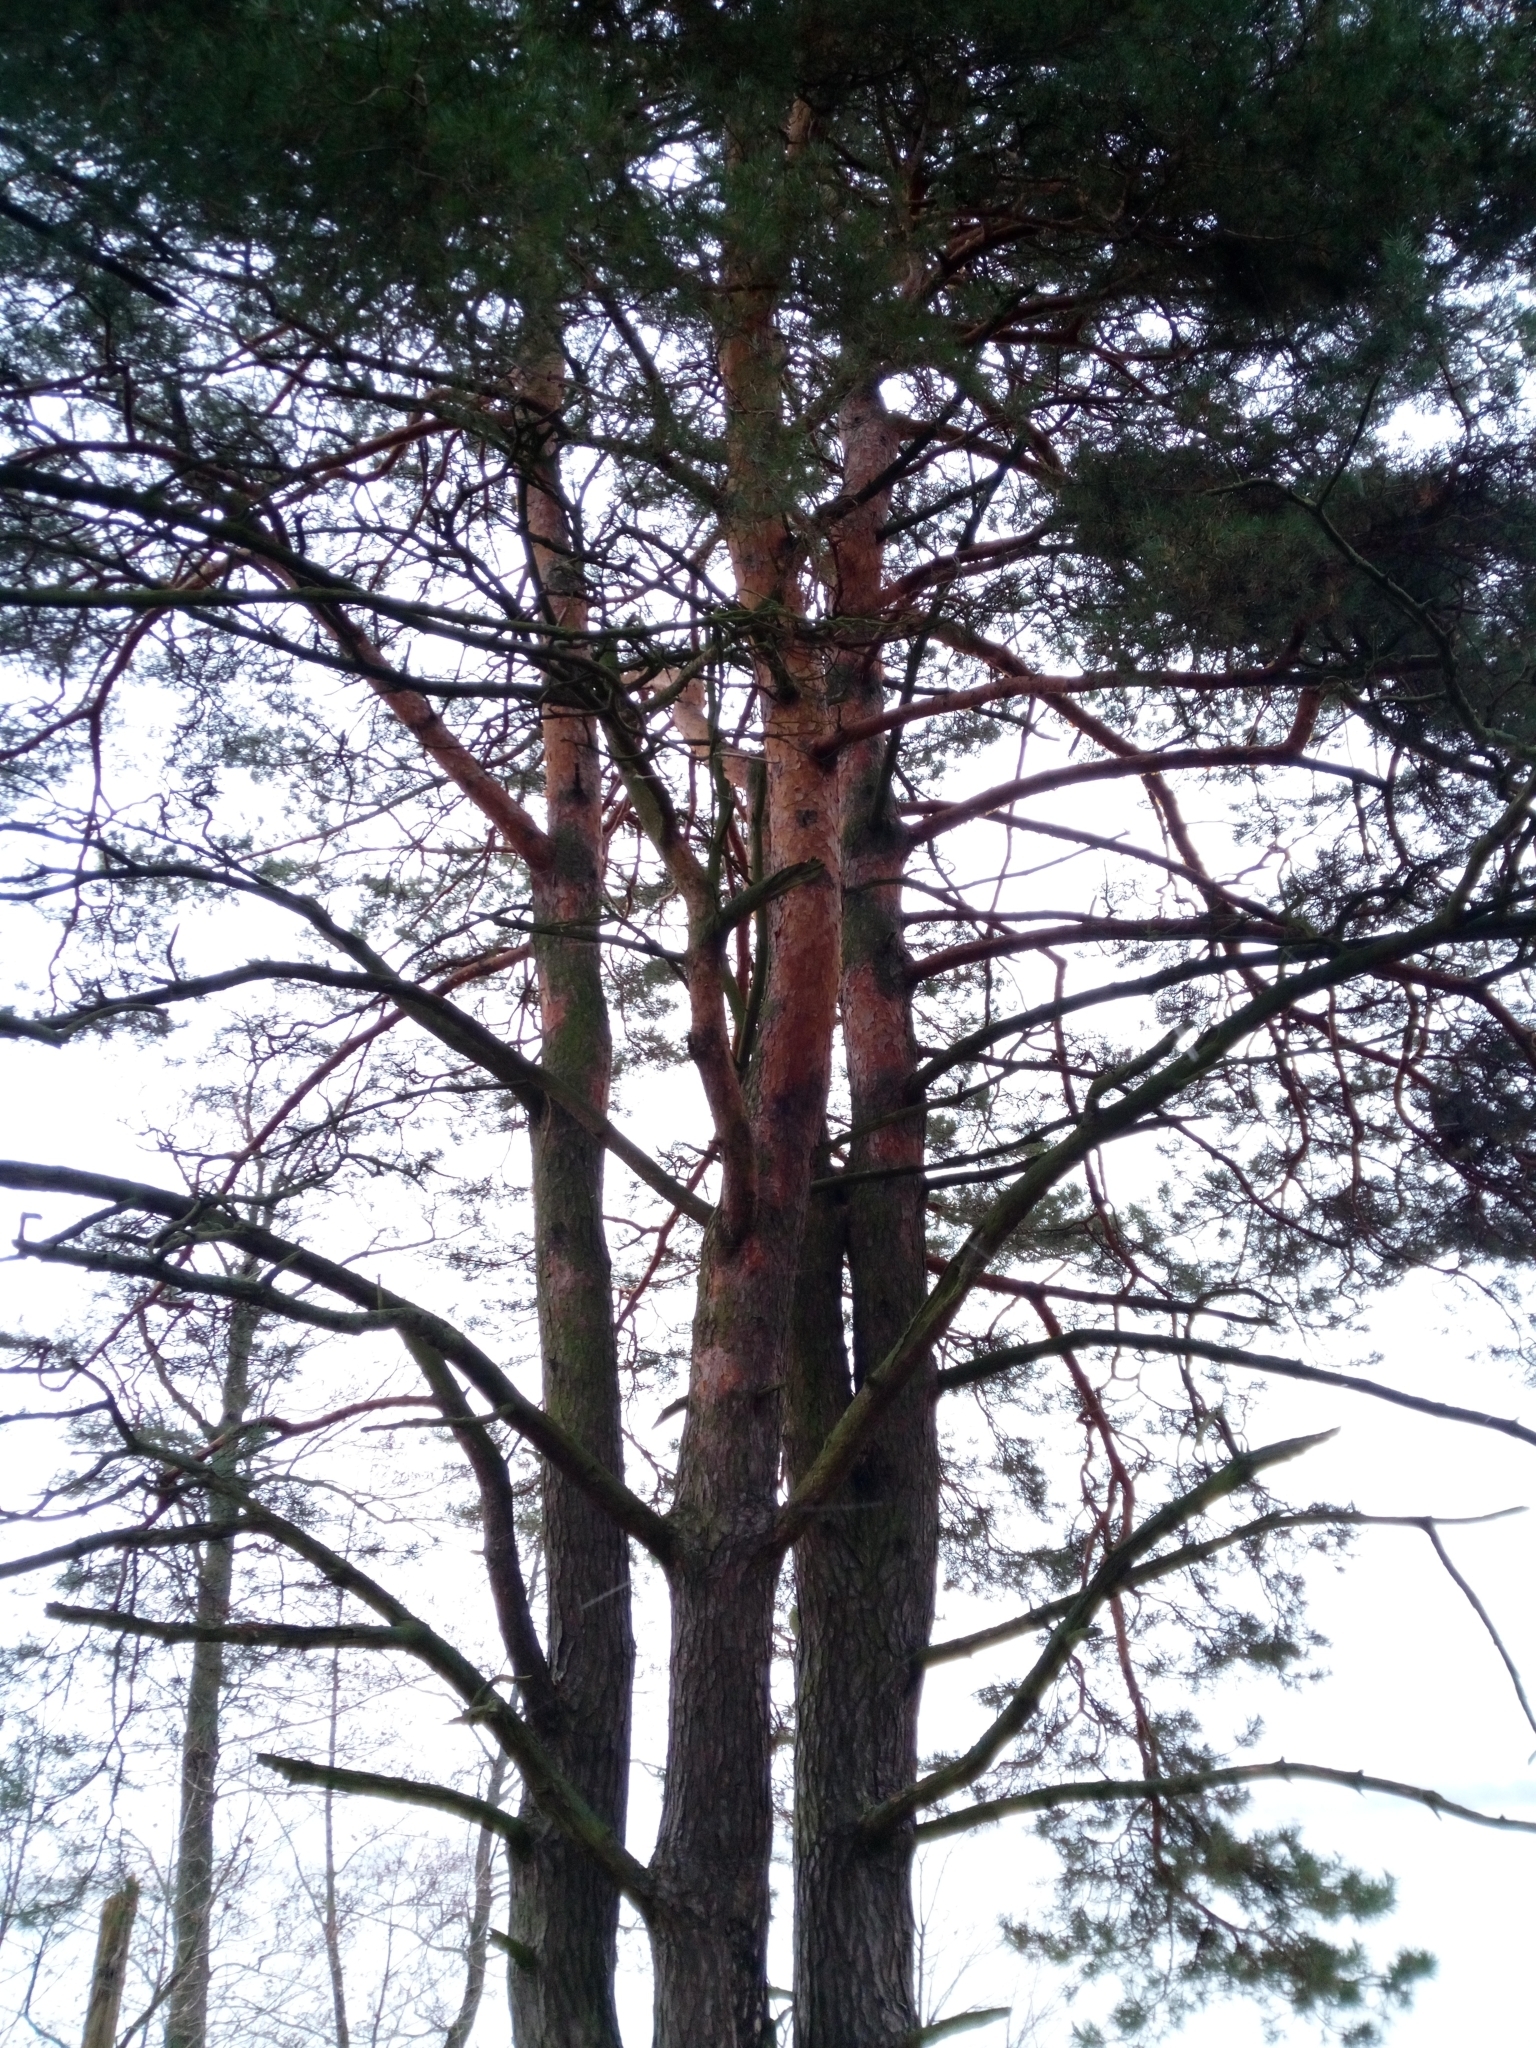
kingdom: Plantae
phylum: Tracheophyta
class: Pinopsida
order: Pinales
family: Pinaceae
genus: Pinus
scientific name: Pinus sylvestris
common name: Scots pine
